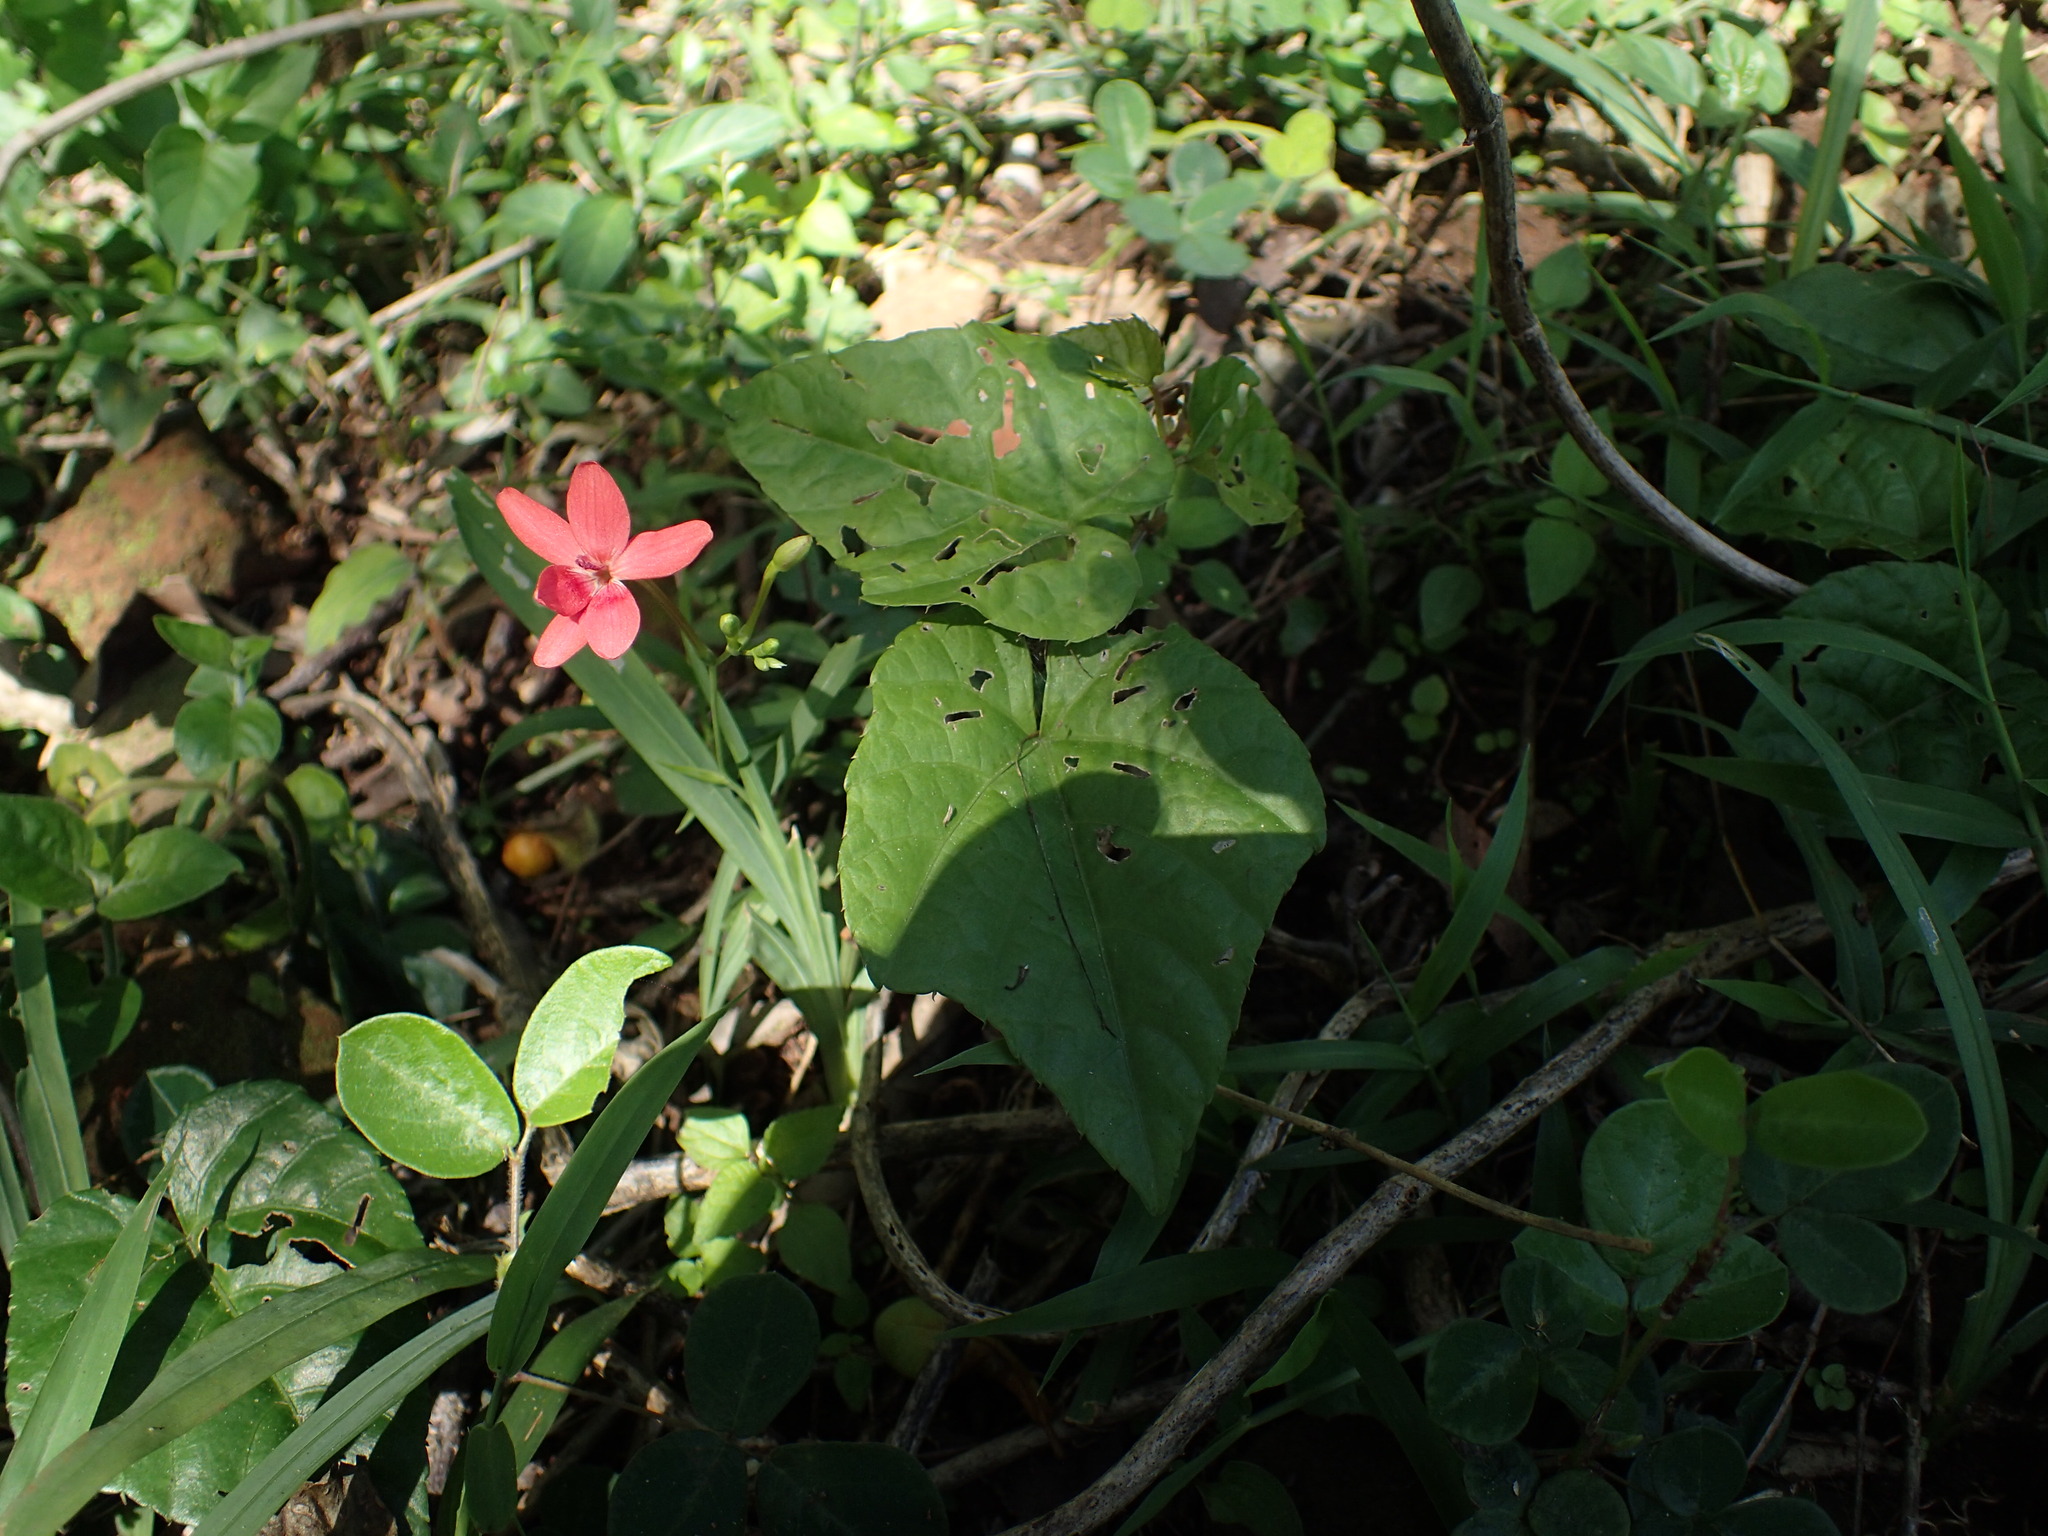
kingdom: Plantae
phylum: Tracheophyta
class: Liliopsida
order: Asparagales
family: Iridaceae
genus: Freesia
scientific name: Freesia laxa
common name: False freesia
